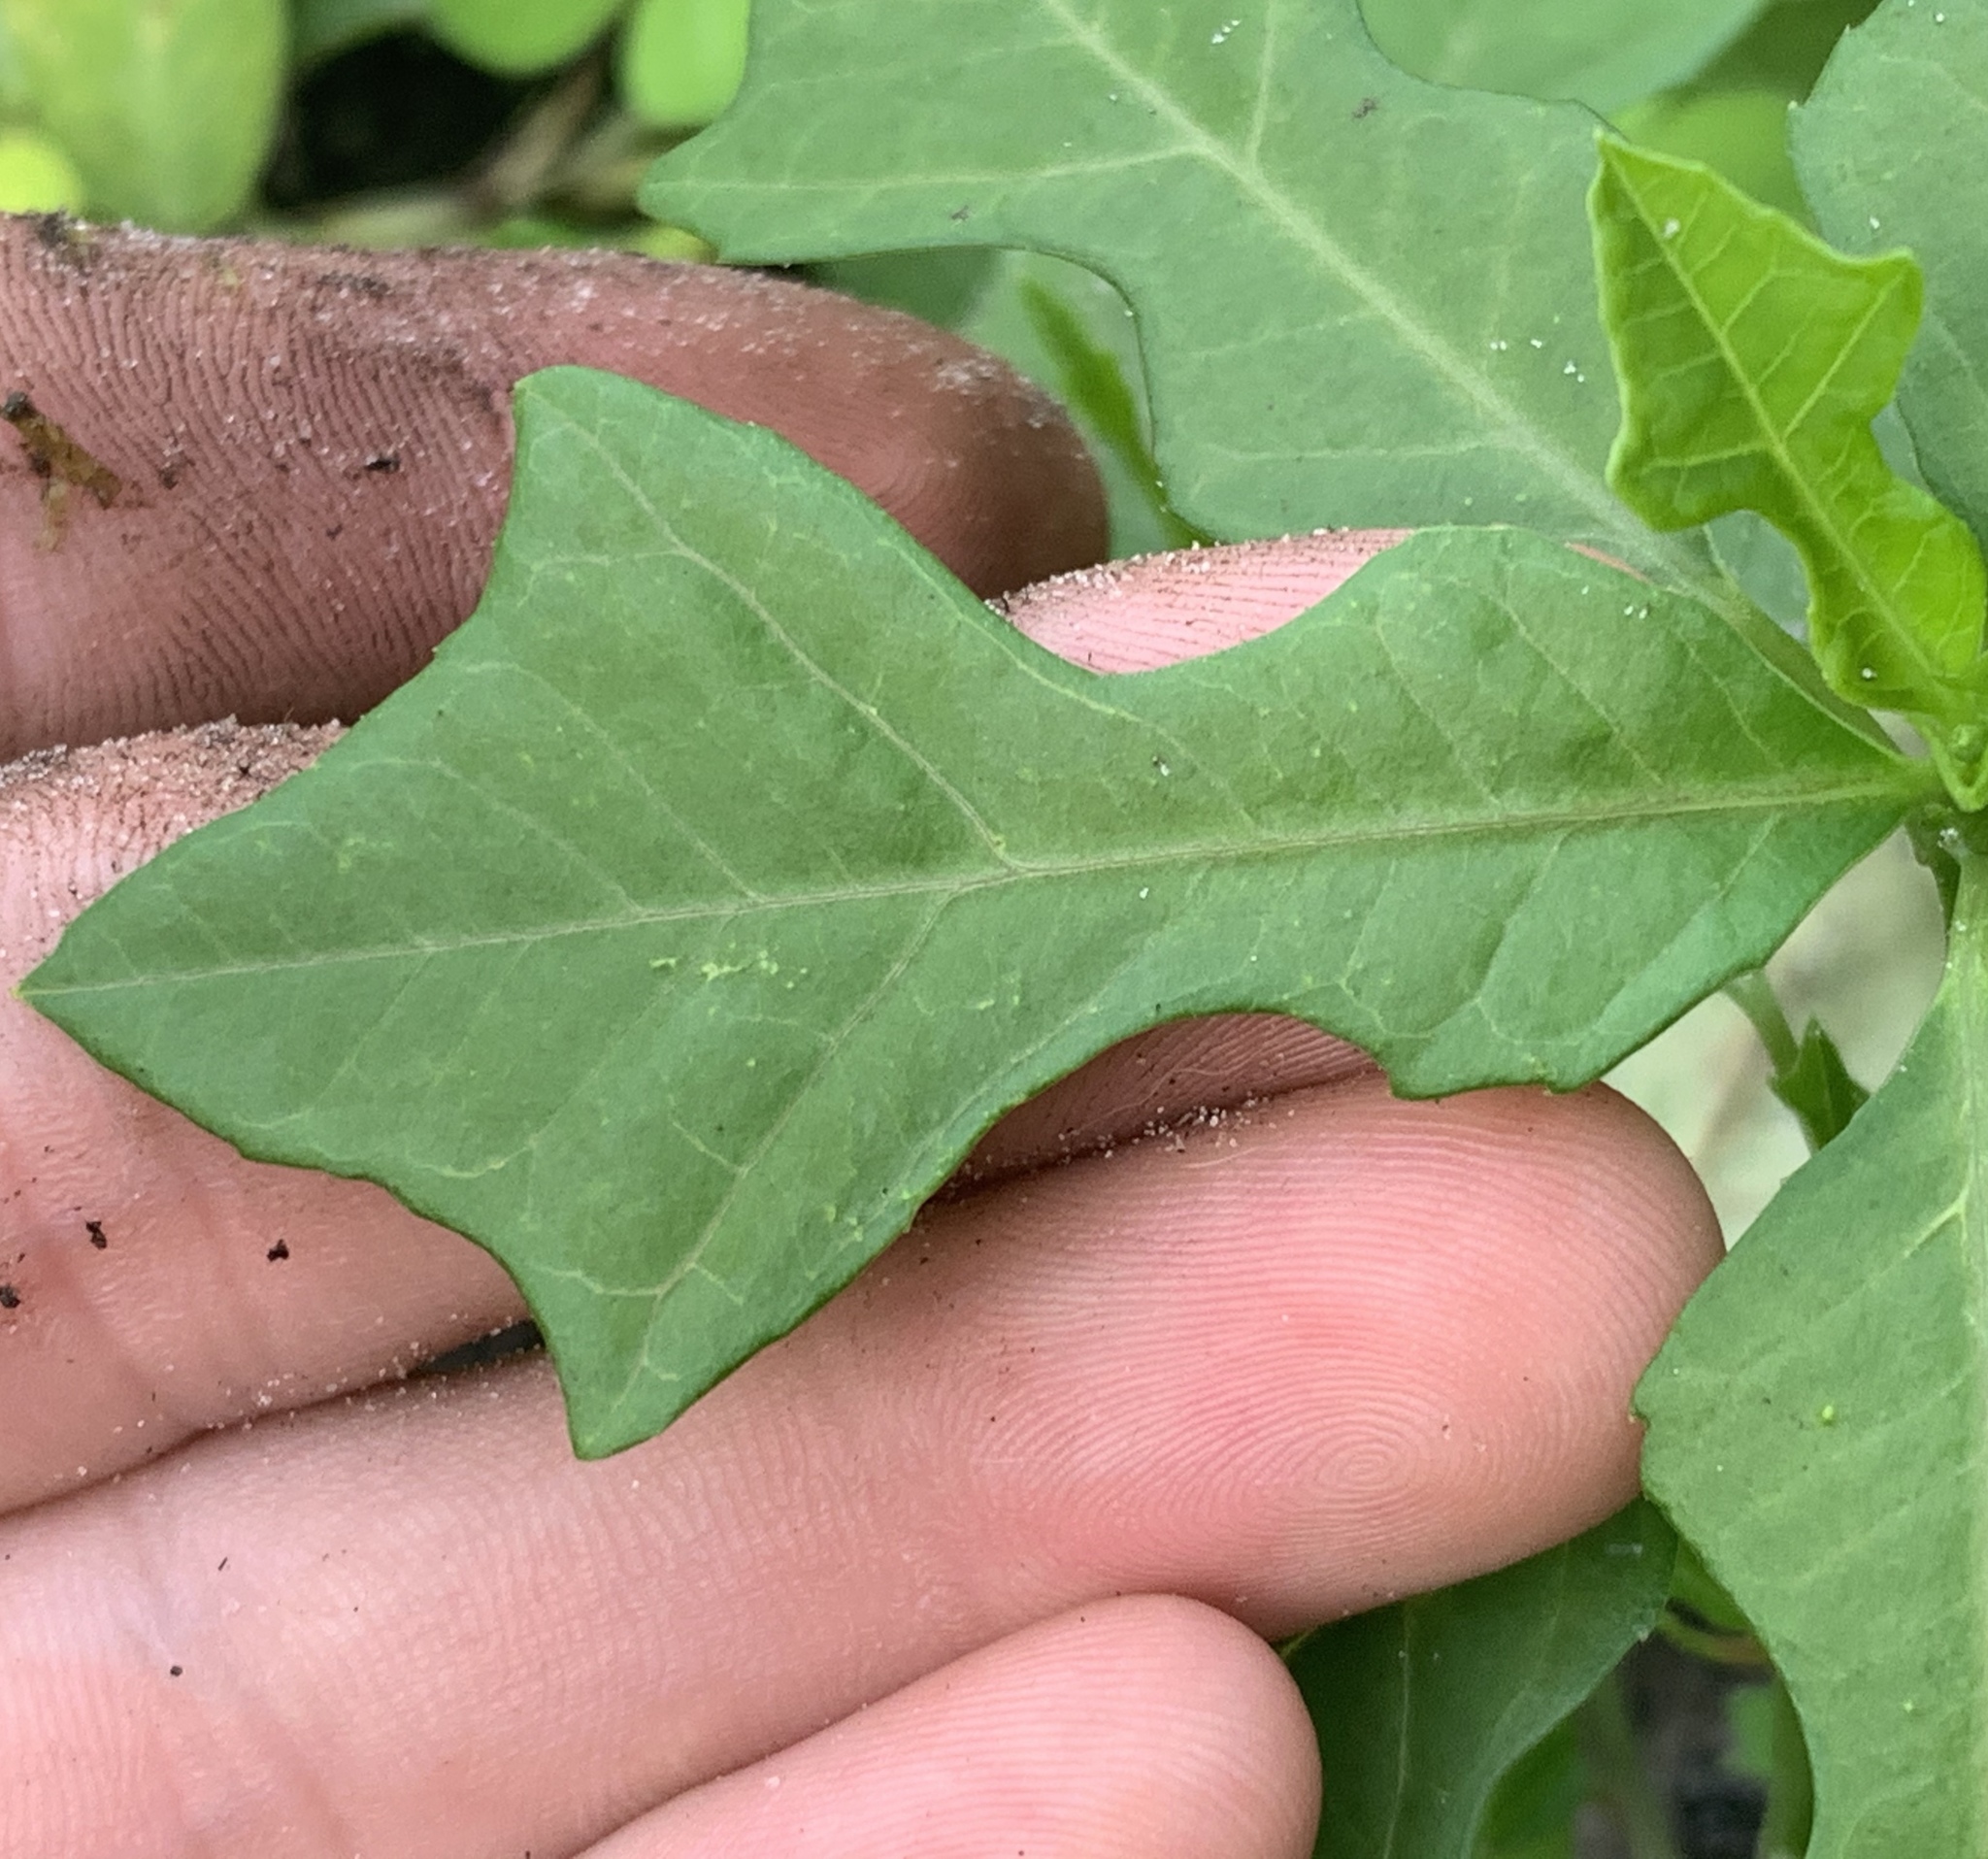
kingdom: Plantae
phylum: Tracheophyta
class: Magnoliopsida
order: Malpighiales
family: Euphorbiaceae
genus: Euphorbia
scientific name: Euphorbia heterophylla
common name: Mexican fireplant
